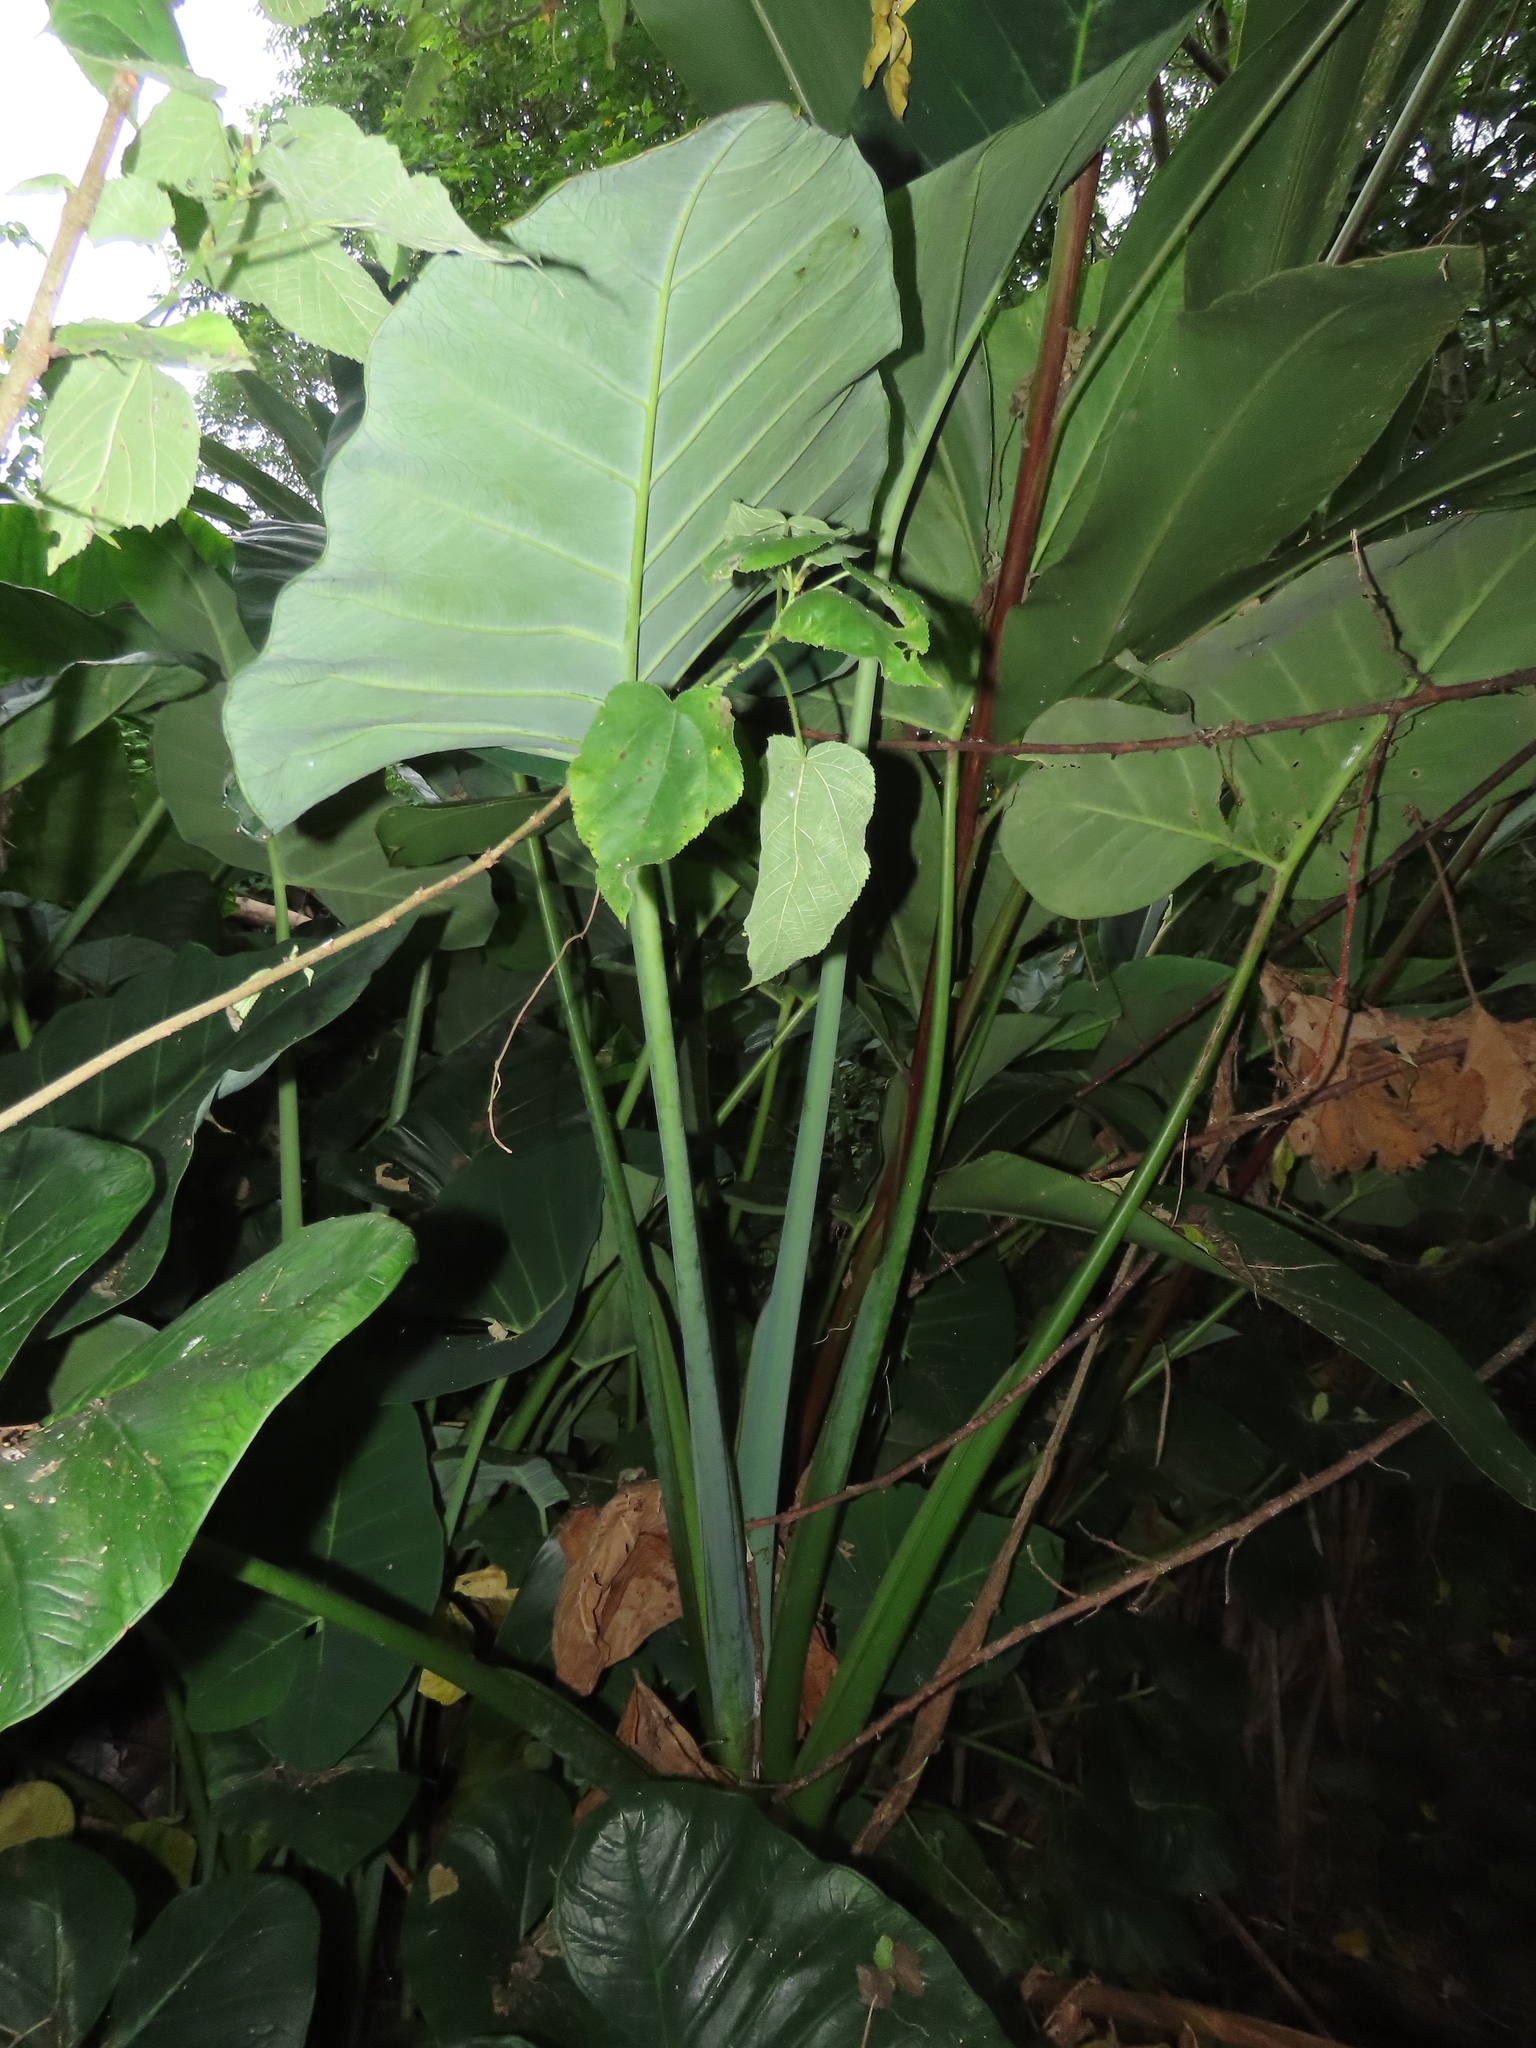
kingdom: Plantae
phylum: Tracheophyta
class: Liliopsida
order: Alismatales
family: Araceae
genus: Xanthosoma
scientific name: Xanthosoma sagittifolium
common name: Arrowleaf elephant's ear
